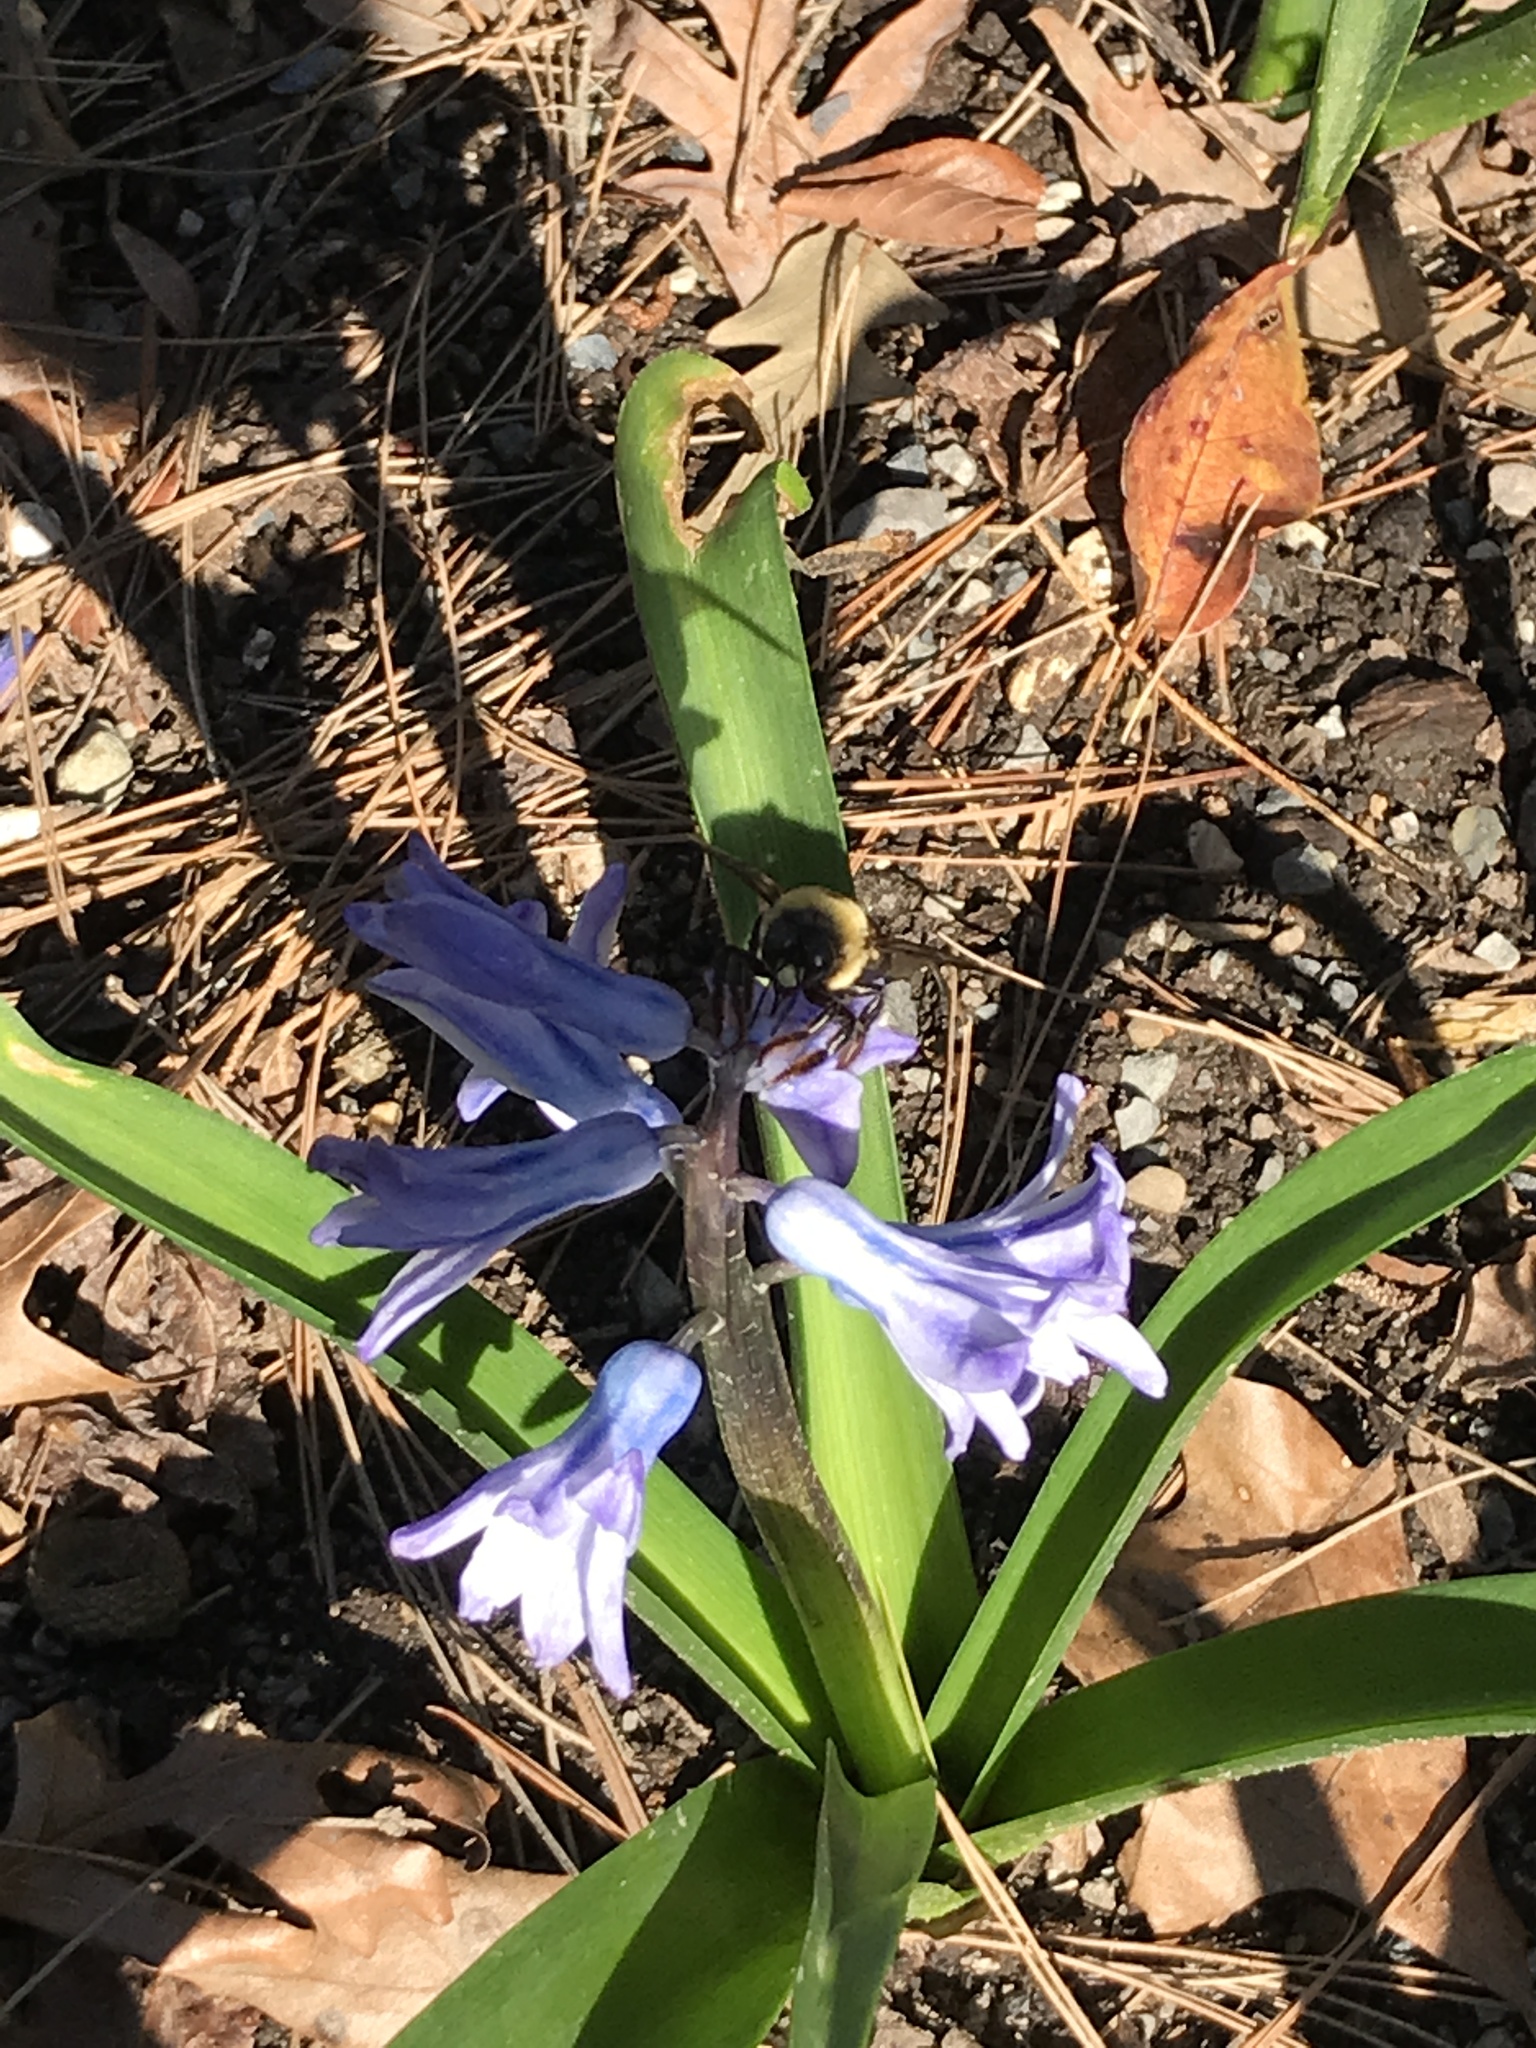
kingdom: Animalia
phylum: Arthropoda
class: Insecta
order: Hymenoptera
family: Apidae
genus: Xylocopa
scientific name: Xylocopa virginica
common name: Carpenter bee
